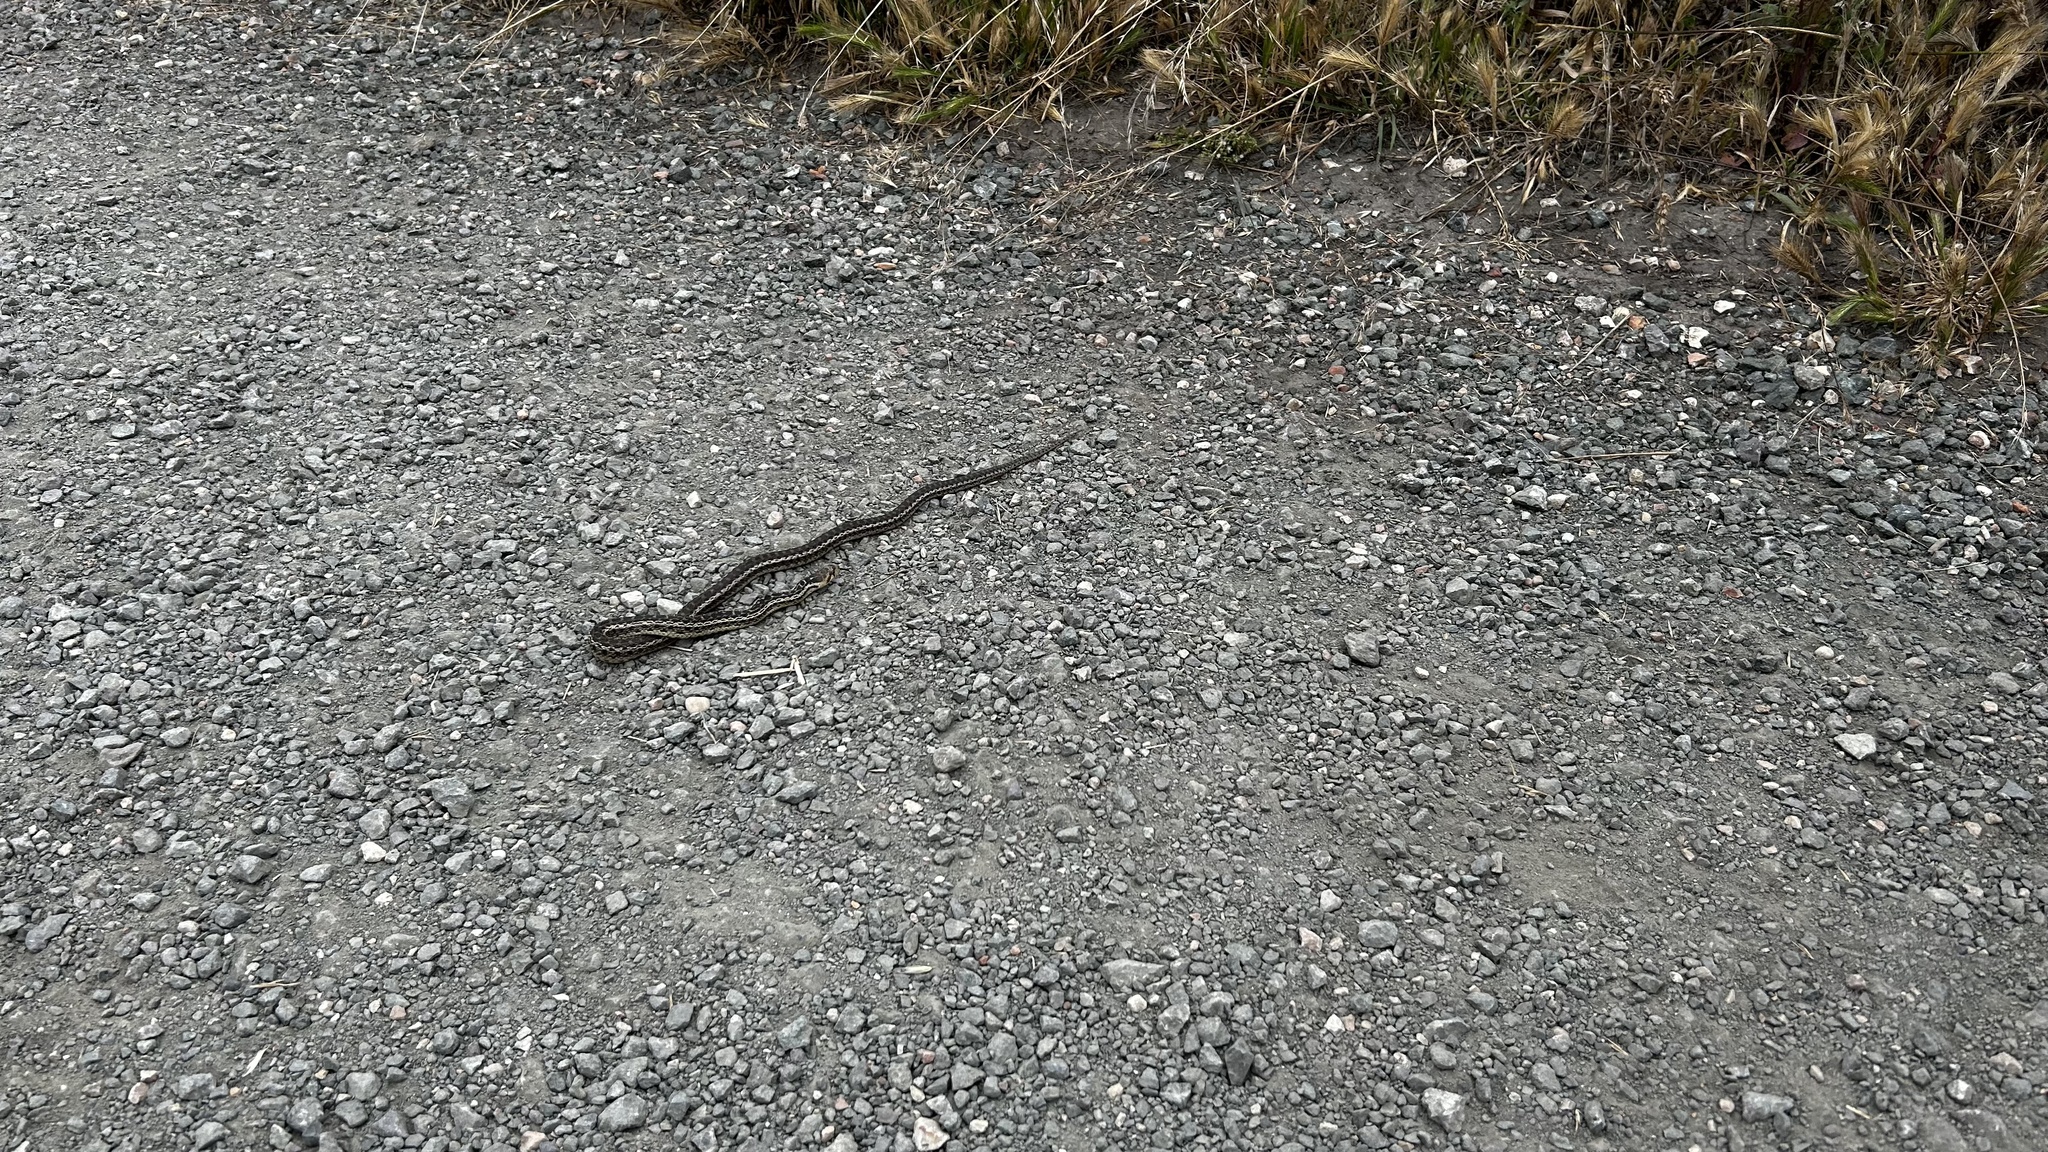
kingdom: Animalia
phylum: Chordata
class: Squamata
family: Colubridae
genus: Pituophis
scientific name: Pituophis catenifer
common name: Gopher snake
